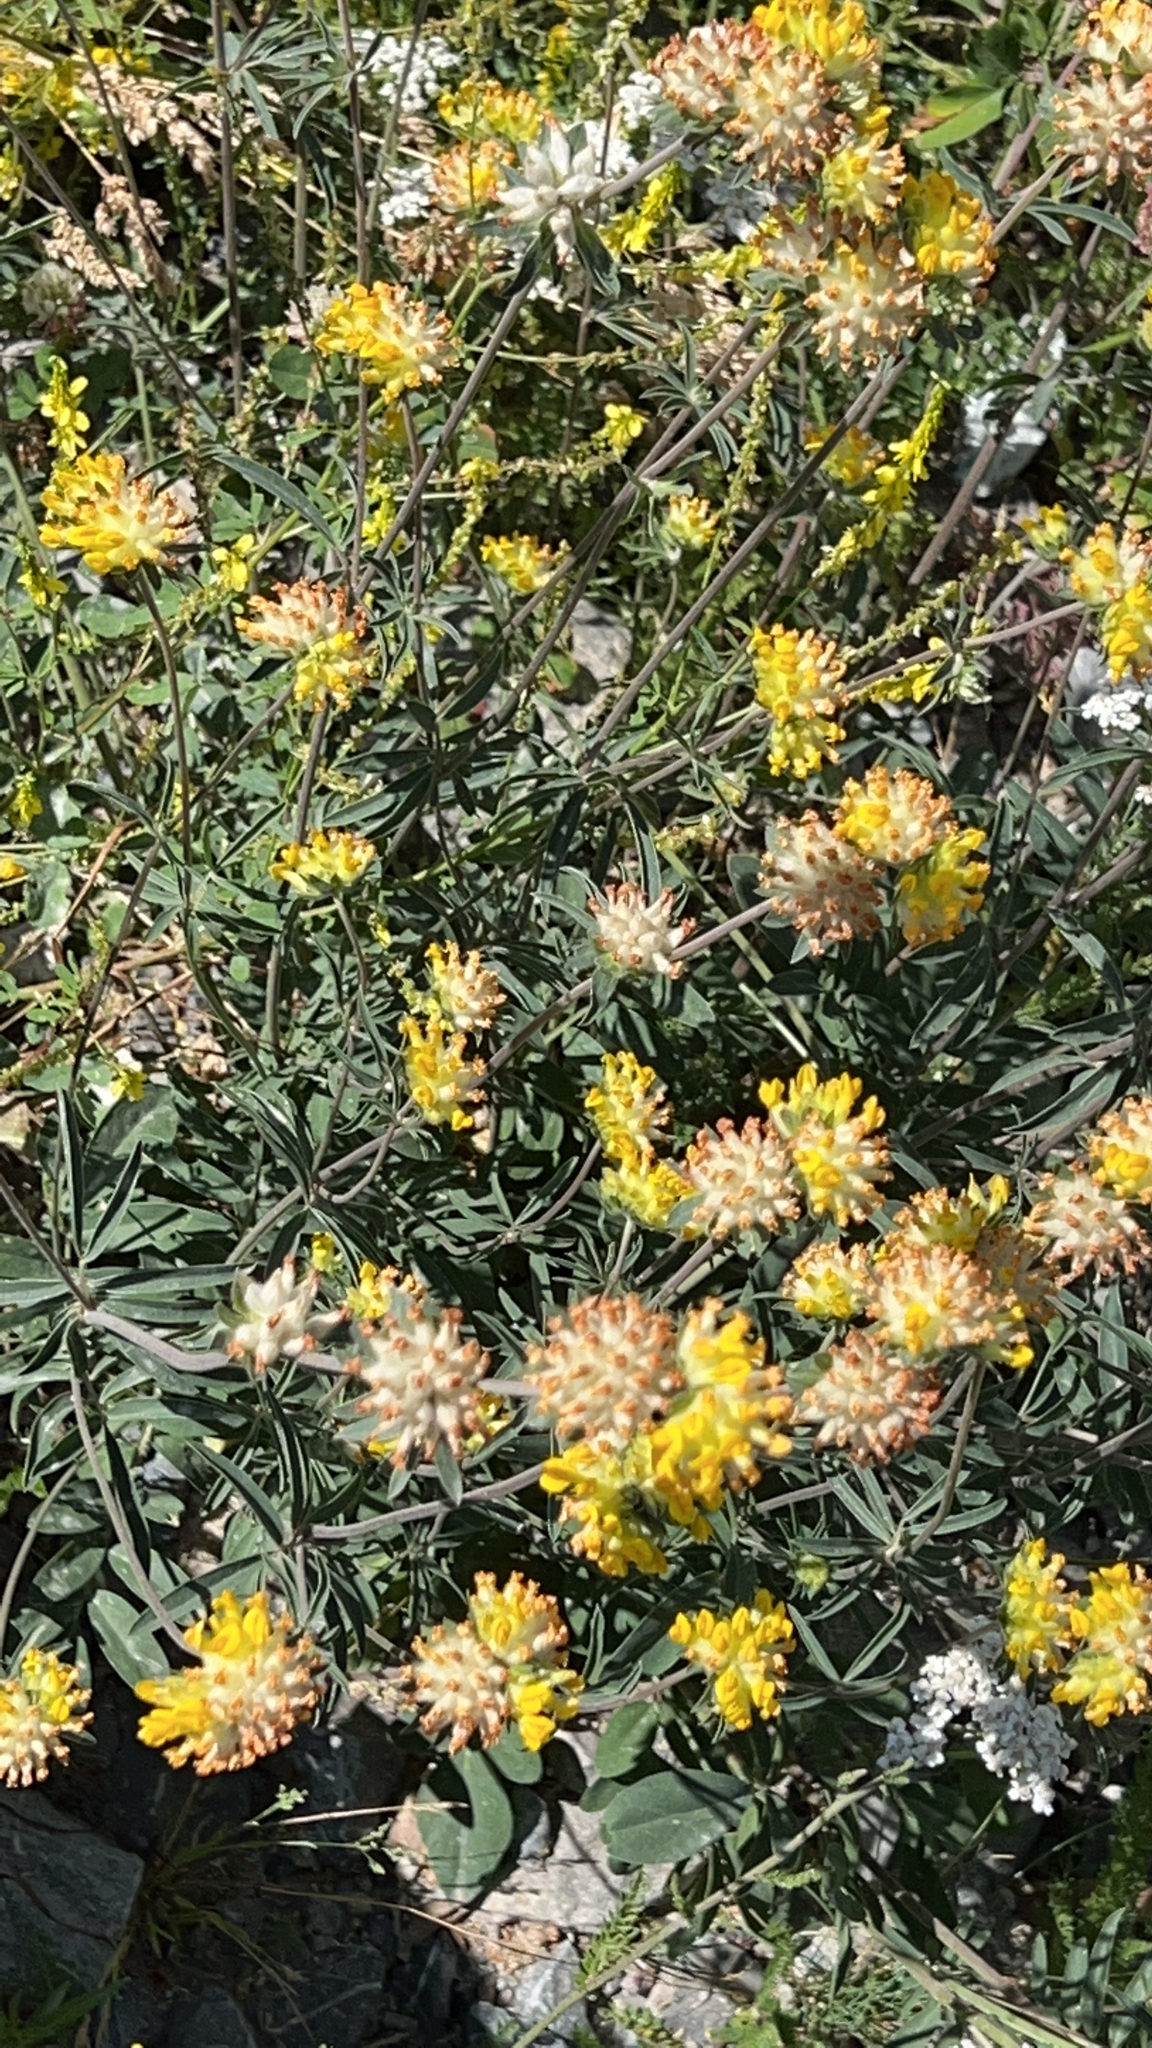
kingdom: Plantae
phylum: Tracheophyta
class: Magnoliopsida
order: Fabales
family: Fabaceae
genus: Anthyllis
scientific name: Anthyllis vulneraria
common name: Kidney vetch
